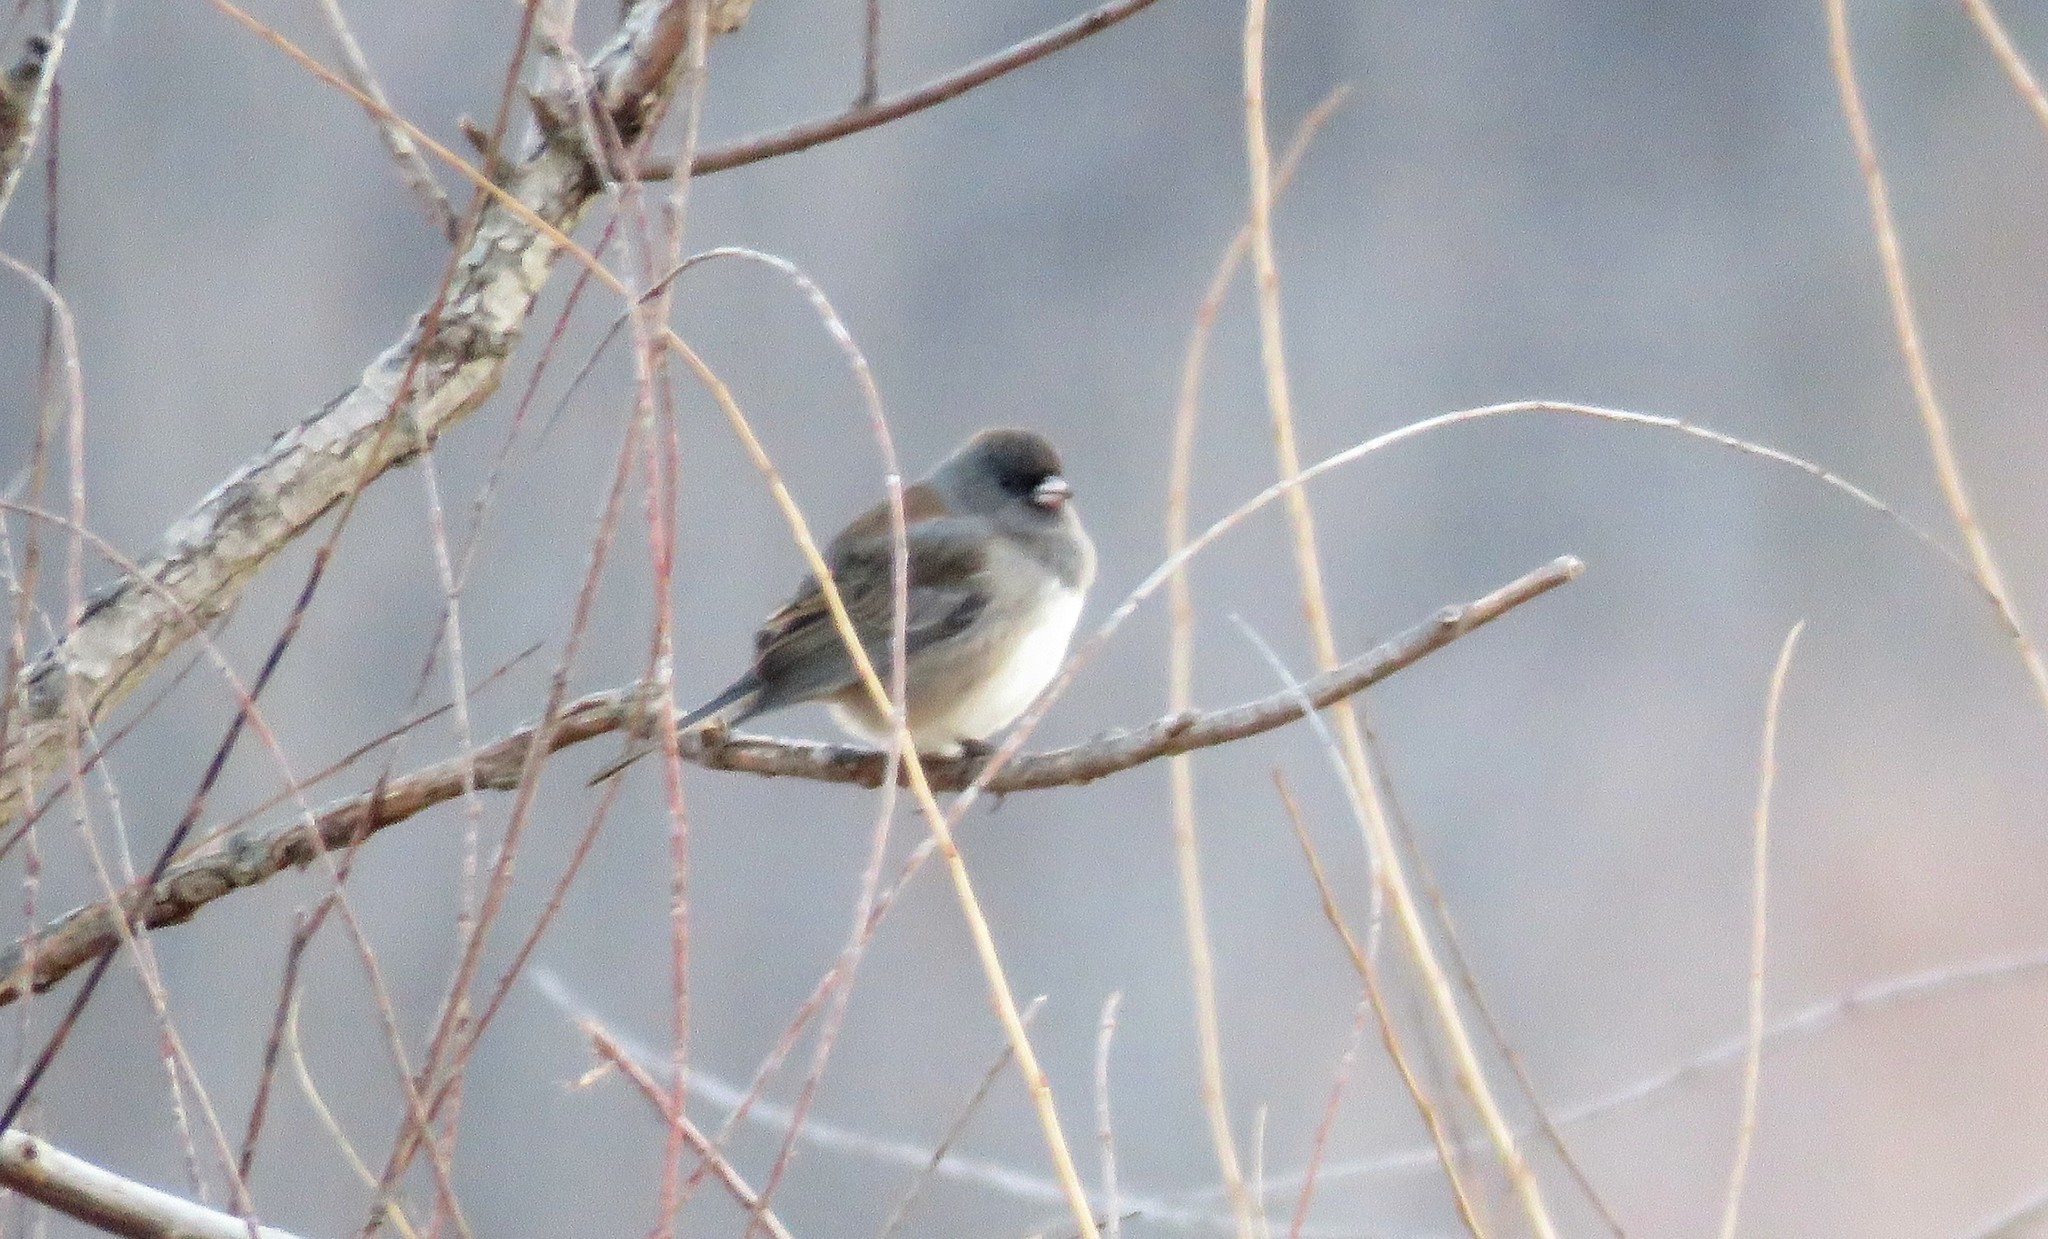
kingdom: Animalia
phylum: Chordata
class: Aves
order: Passeriformes
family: Passerellidae
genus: Junco
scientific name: Junco hyemalis
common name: Dark-eyed junco
